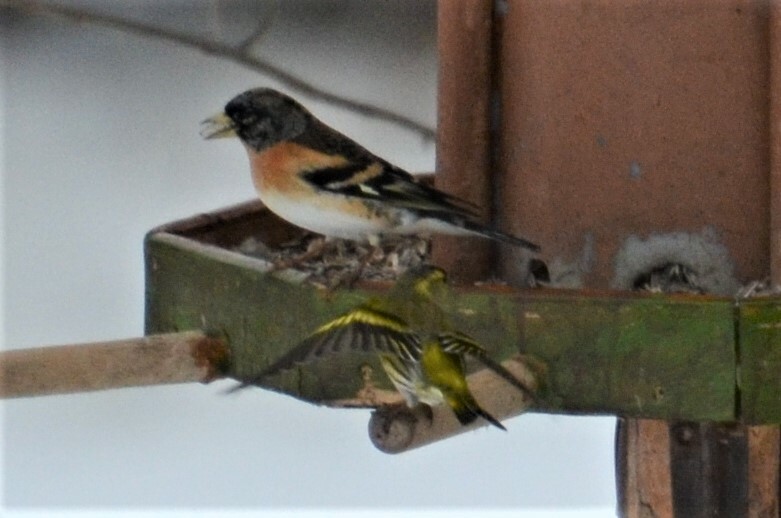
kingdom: Animalia
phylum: Chordata
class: Aves
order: Passeriformes
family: Fringillidae
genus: Fringilla
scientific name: Fringilla montifringilla
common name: Brambling
